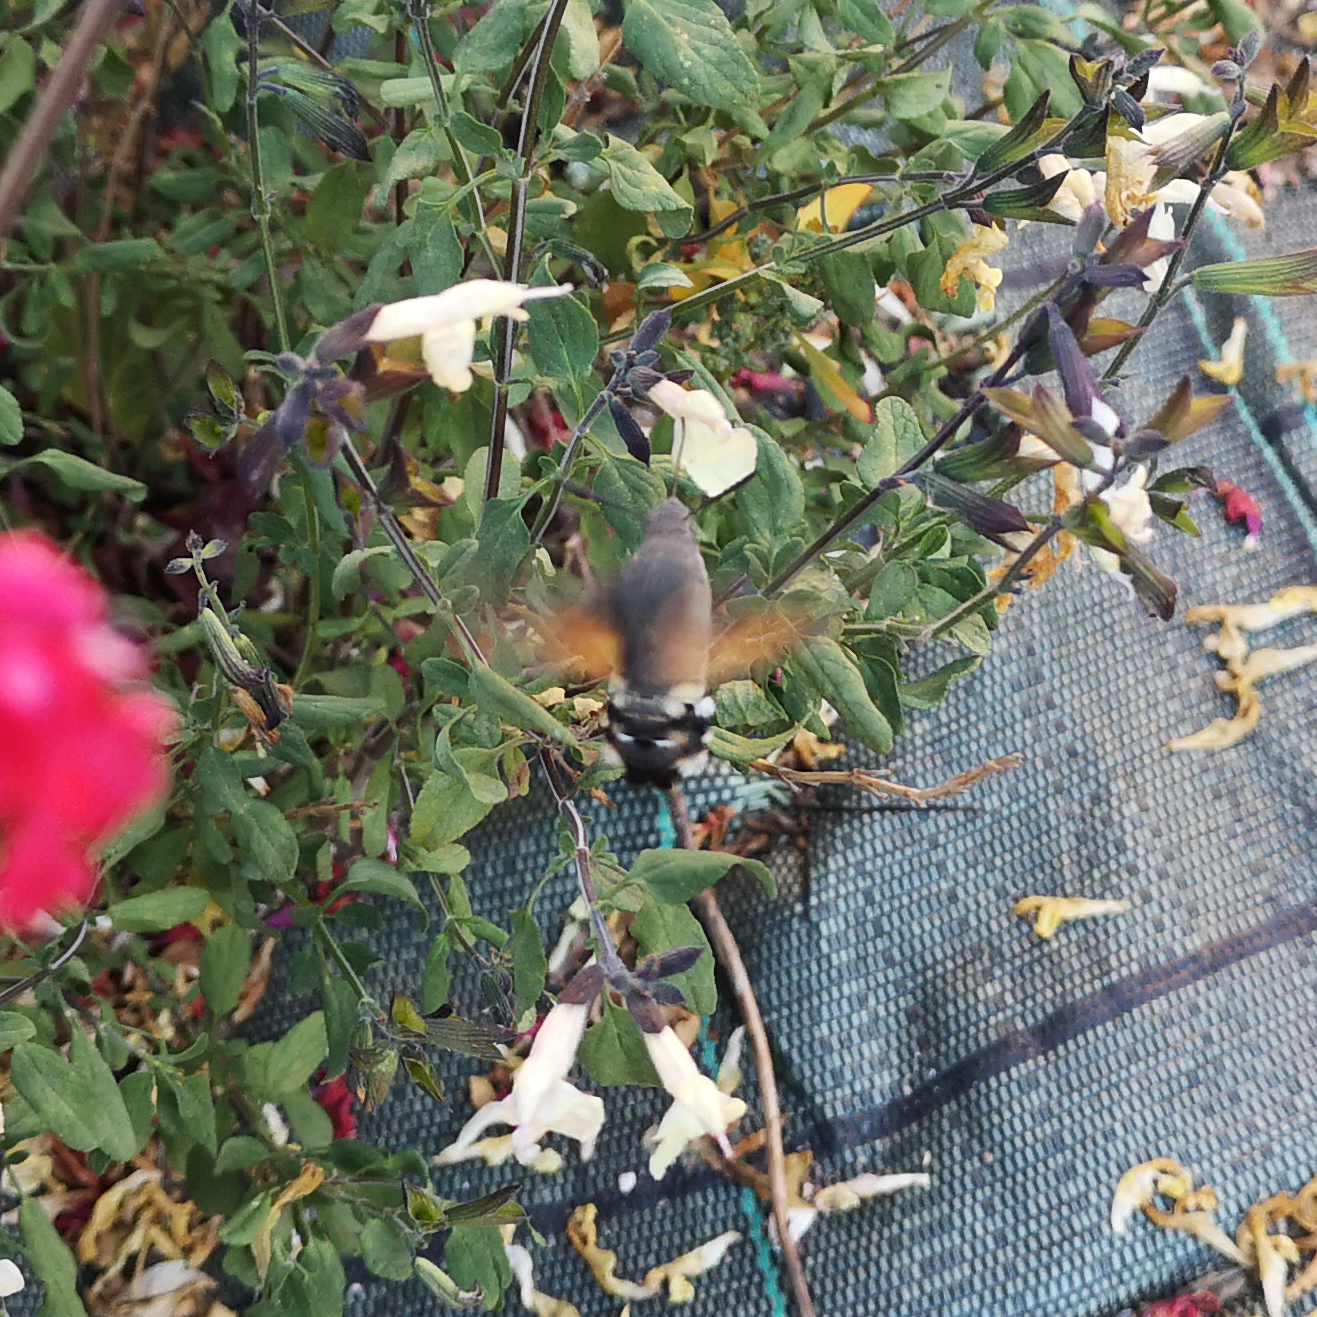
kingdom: Animalia
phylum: Arthropoda
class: Insecta
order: Lepidoptera
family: Sphingidae
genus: Macroglossum
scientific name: Macroglossum stellatarum
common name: Humming-bird hawk-moth
